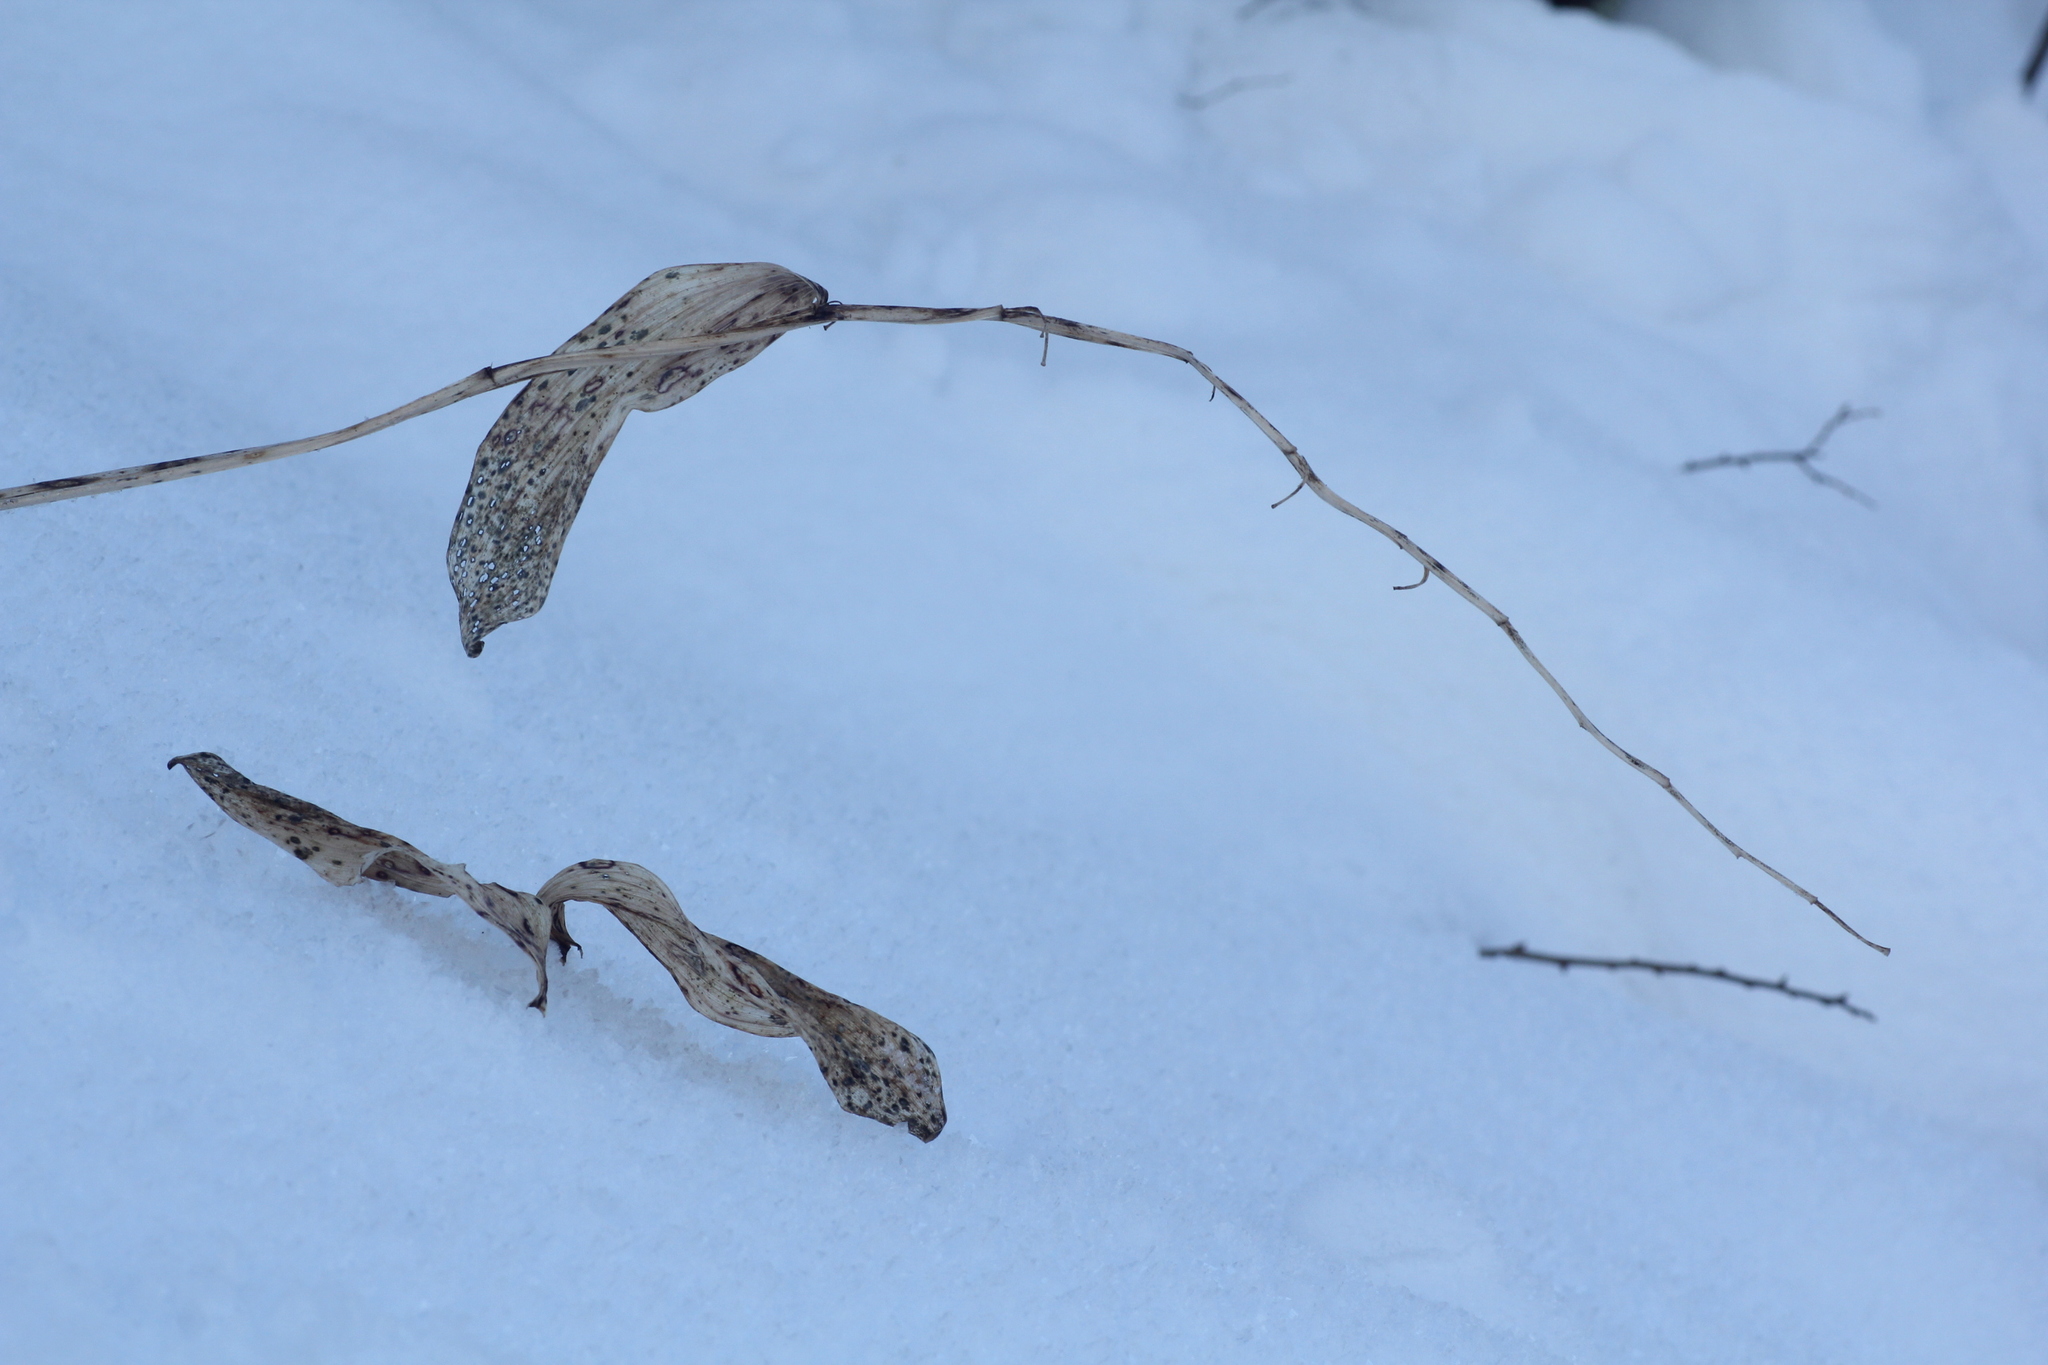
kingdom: Plantae
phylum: Tracheophyta
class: Liliopsida
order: Asparagales
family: Asparagaceae
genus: Polygonatum
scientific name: Polygonatum odoratum
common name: Angular solomon's-seal
